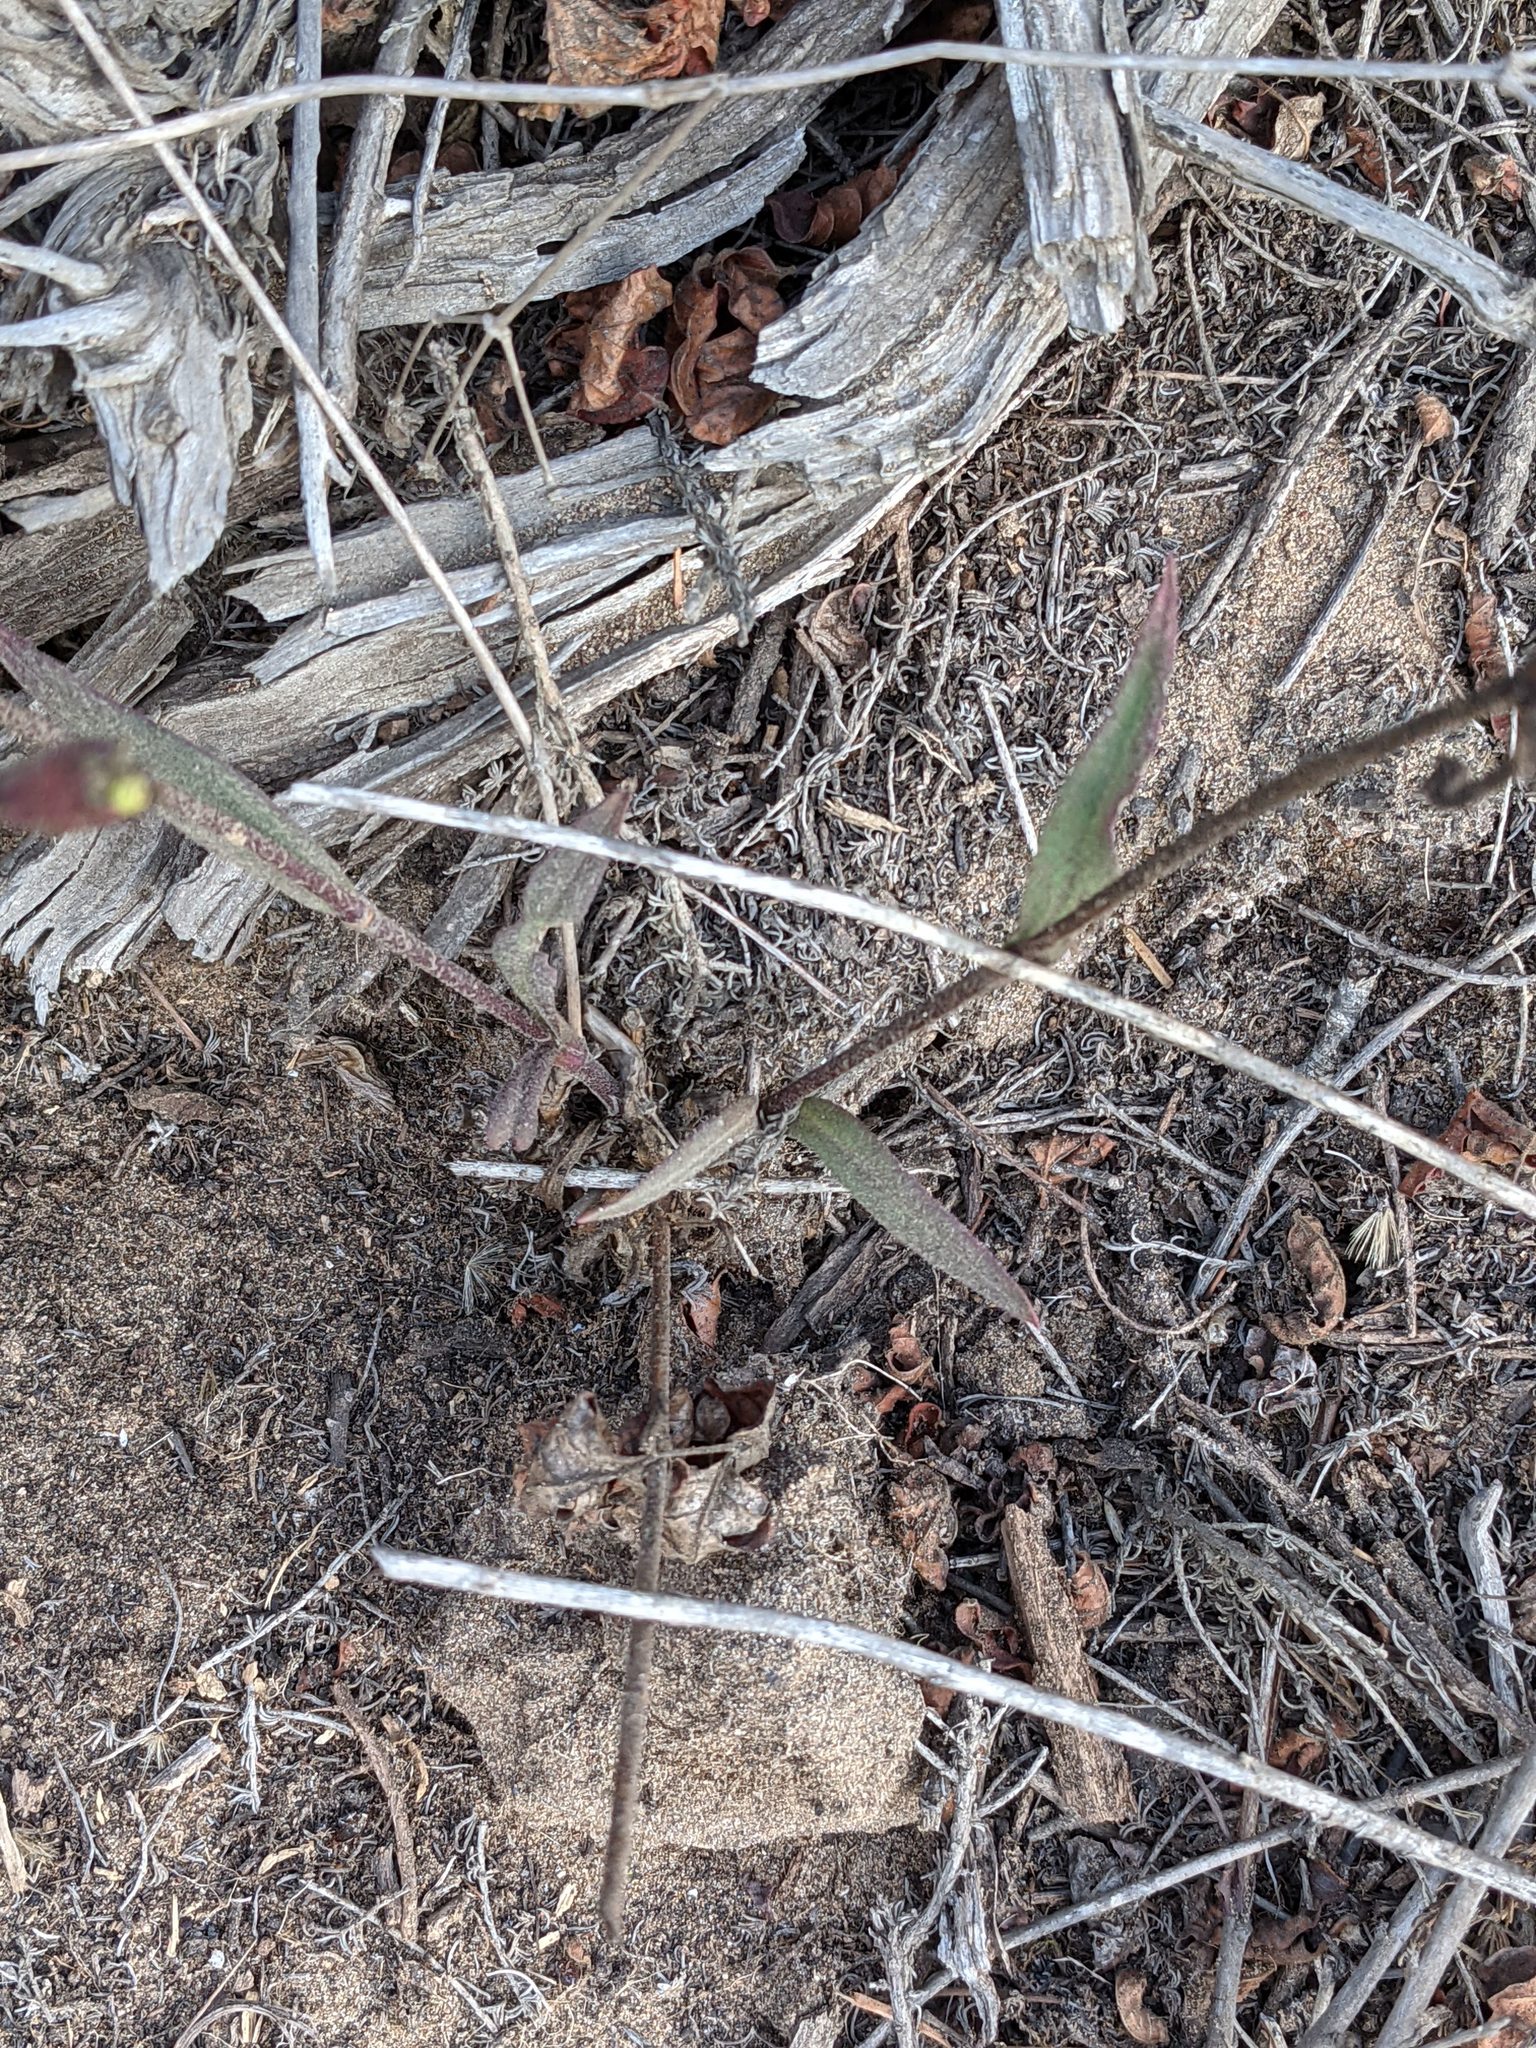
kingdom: Plantae
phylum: Tracheophyta
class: Magnoliopsida
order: Caryophyllales
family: Caryophyllaceae
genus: Silene
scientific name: Silene laciniata
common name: Indian-pink
